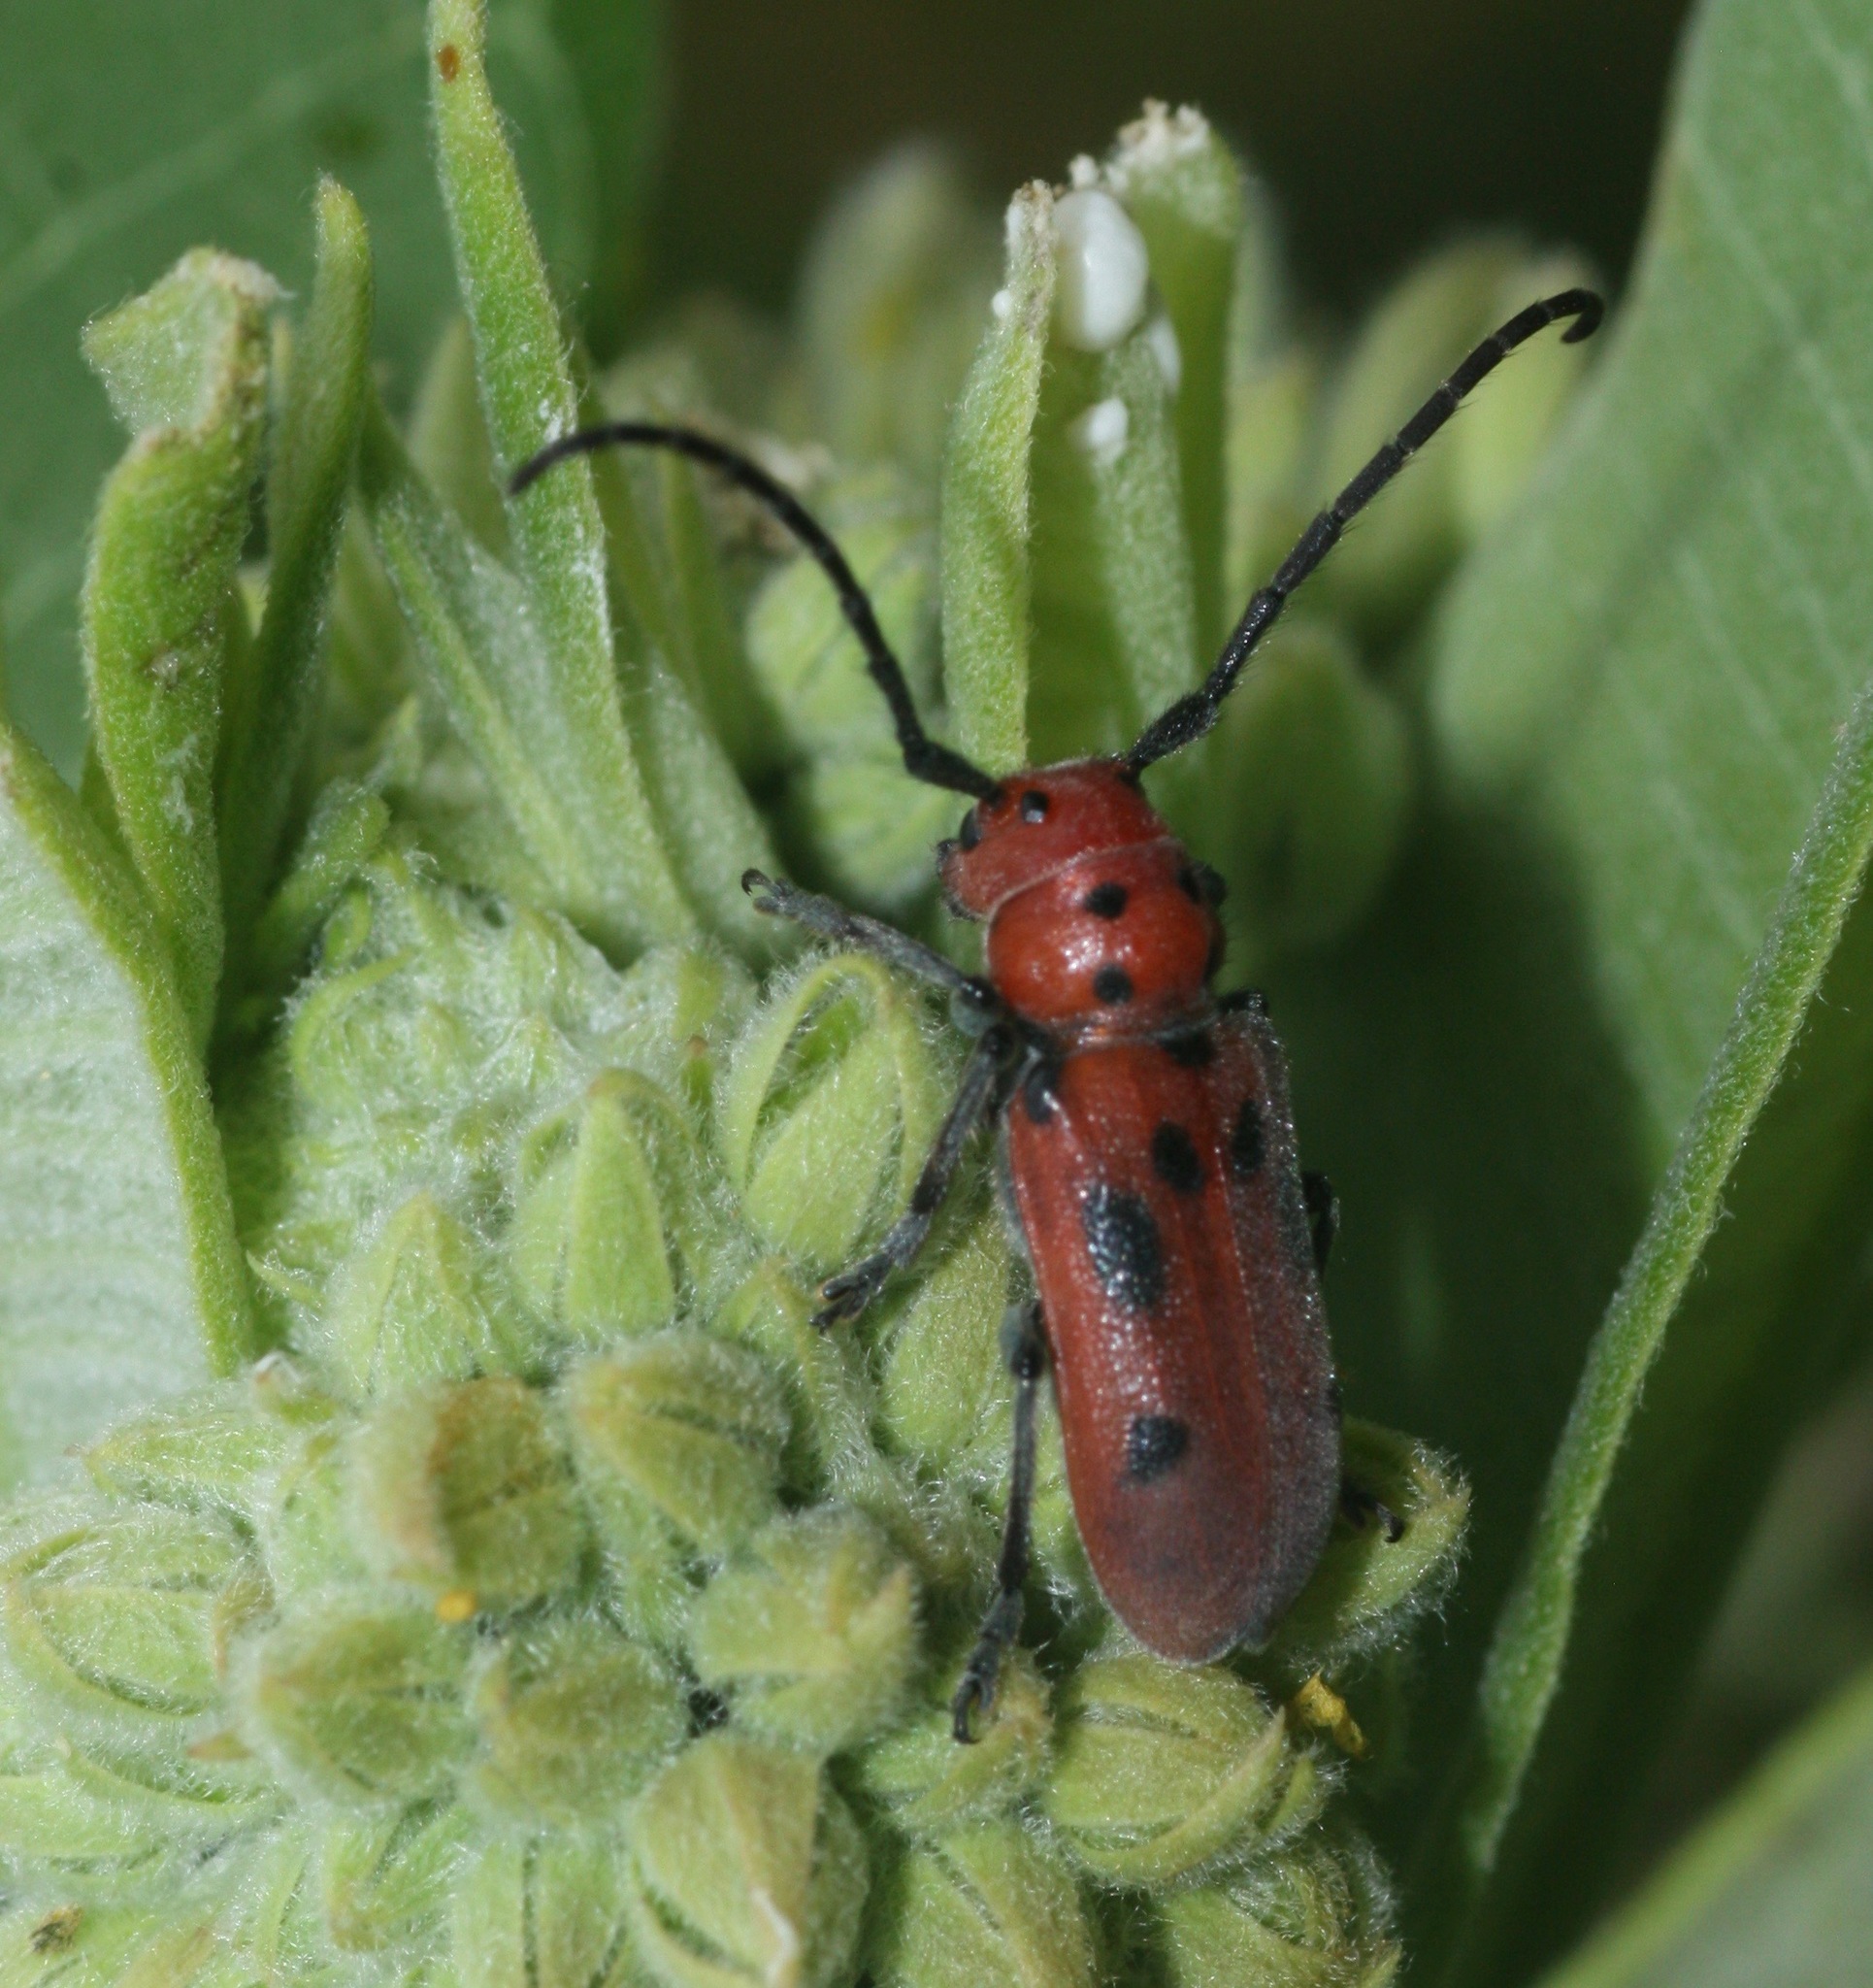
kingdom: Animalia
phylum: Arthropoda
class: Insecta
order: Coleoptera
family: Cerambycidae
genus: Tetraopes
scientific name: Tetraopes tetrophthalmus
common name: Red milkweed beetle
